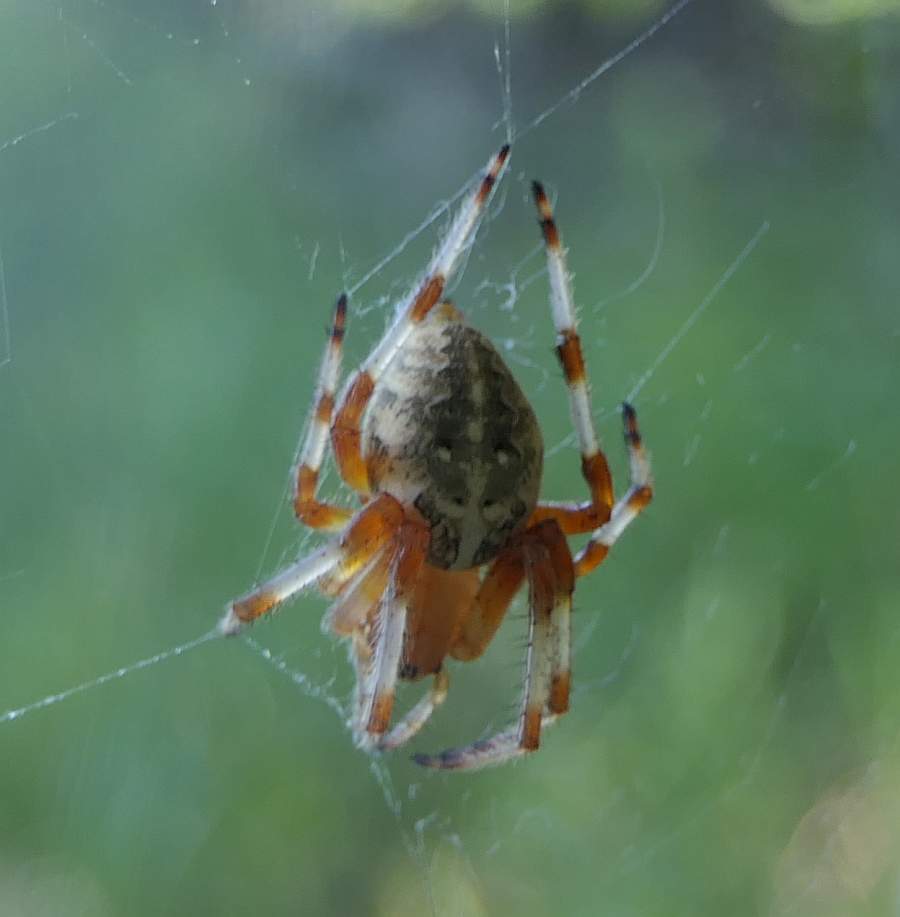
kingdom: Animalia
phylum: Arthropoda
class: Arachnida
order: Araneae
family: Araneidae
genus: Araneus
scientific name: Araneus marmoreus
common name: Marbled orbweaver
